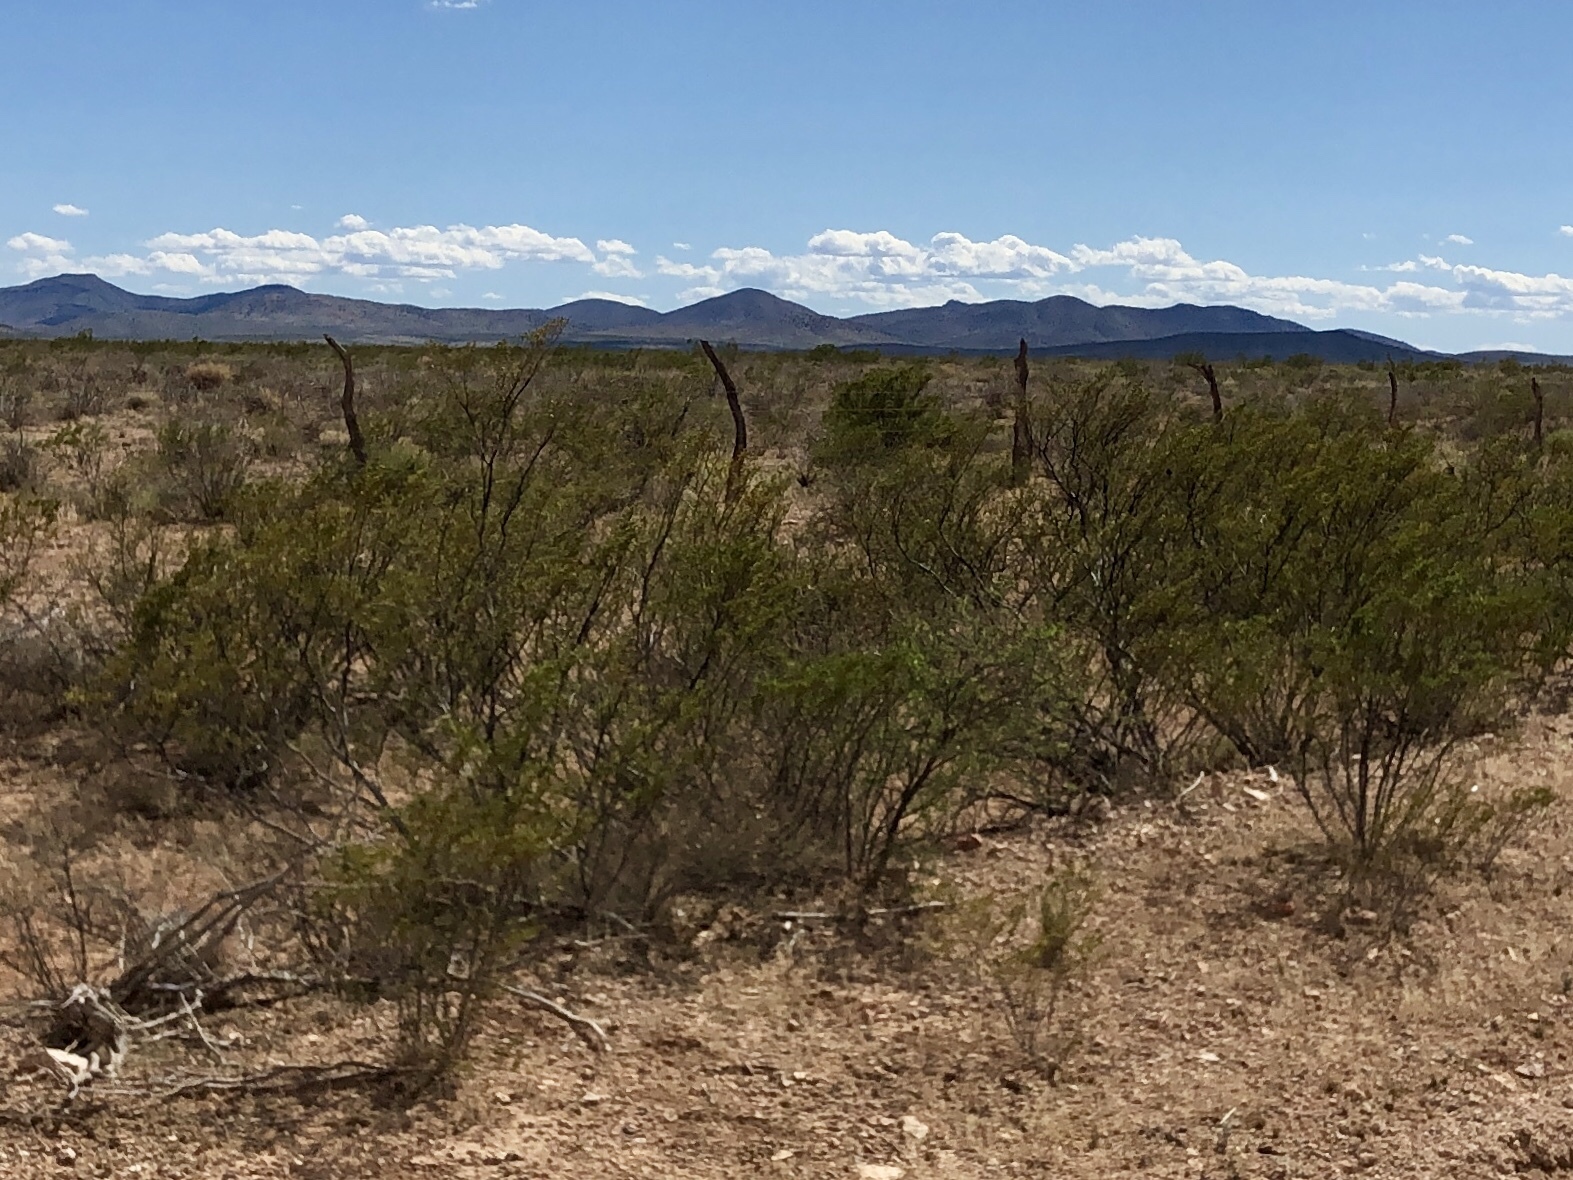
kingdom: Plantae
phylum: Tracheophyta
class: Magnoliopsida
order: Zygophyllales
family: Zygophyllaceae
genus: Larrea
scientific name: Larrea tridentata
